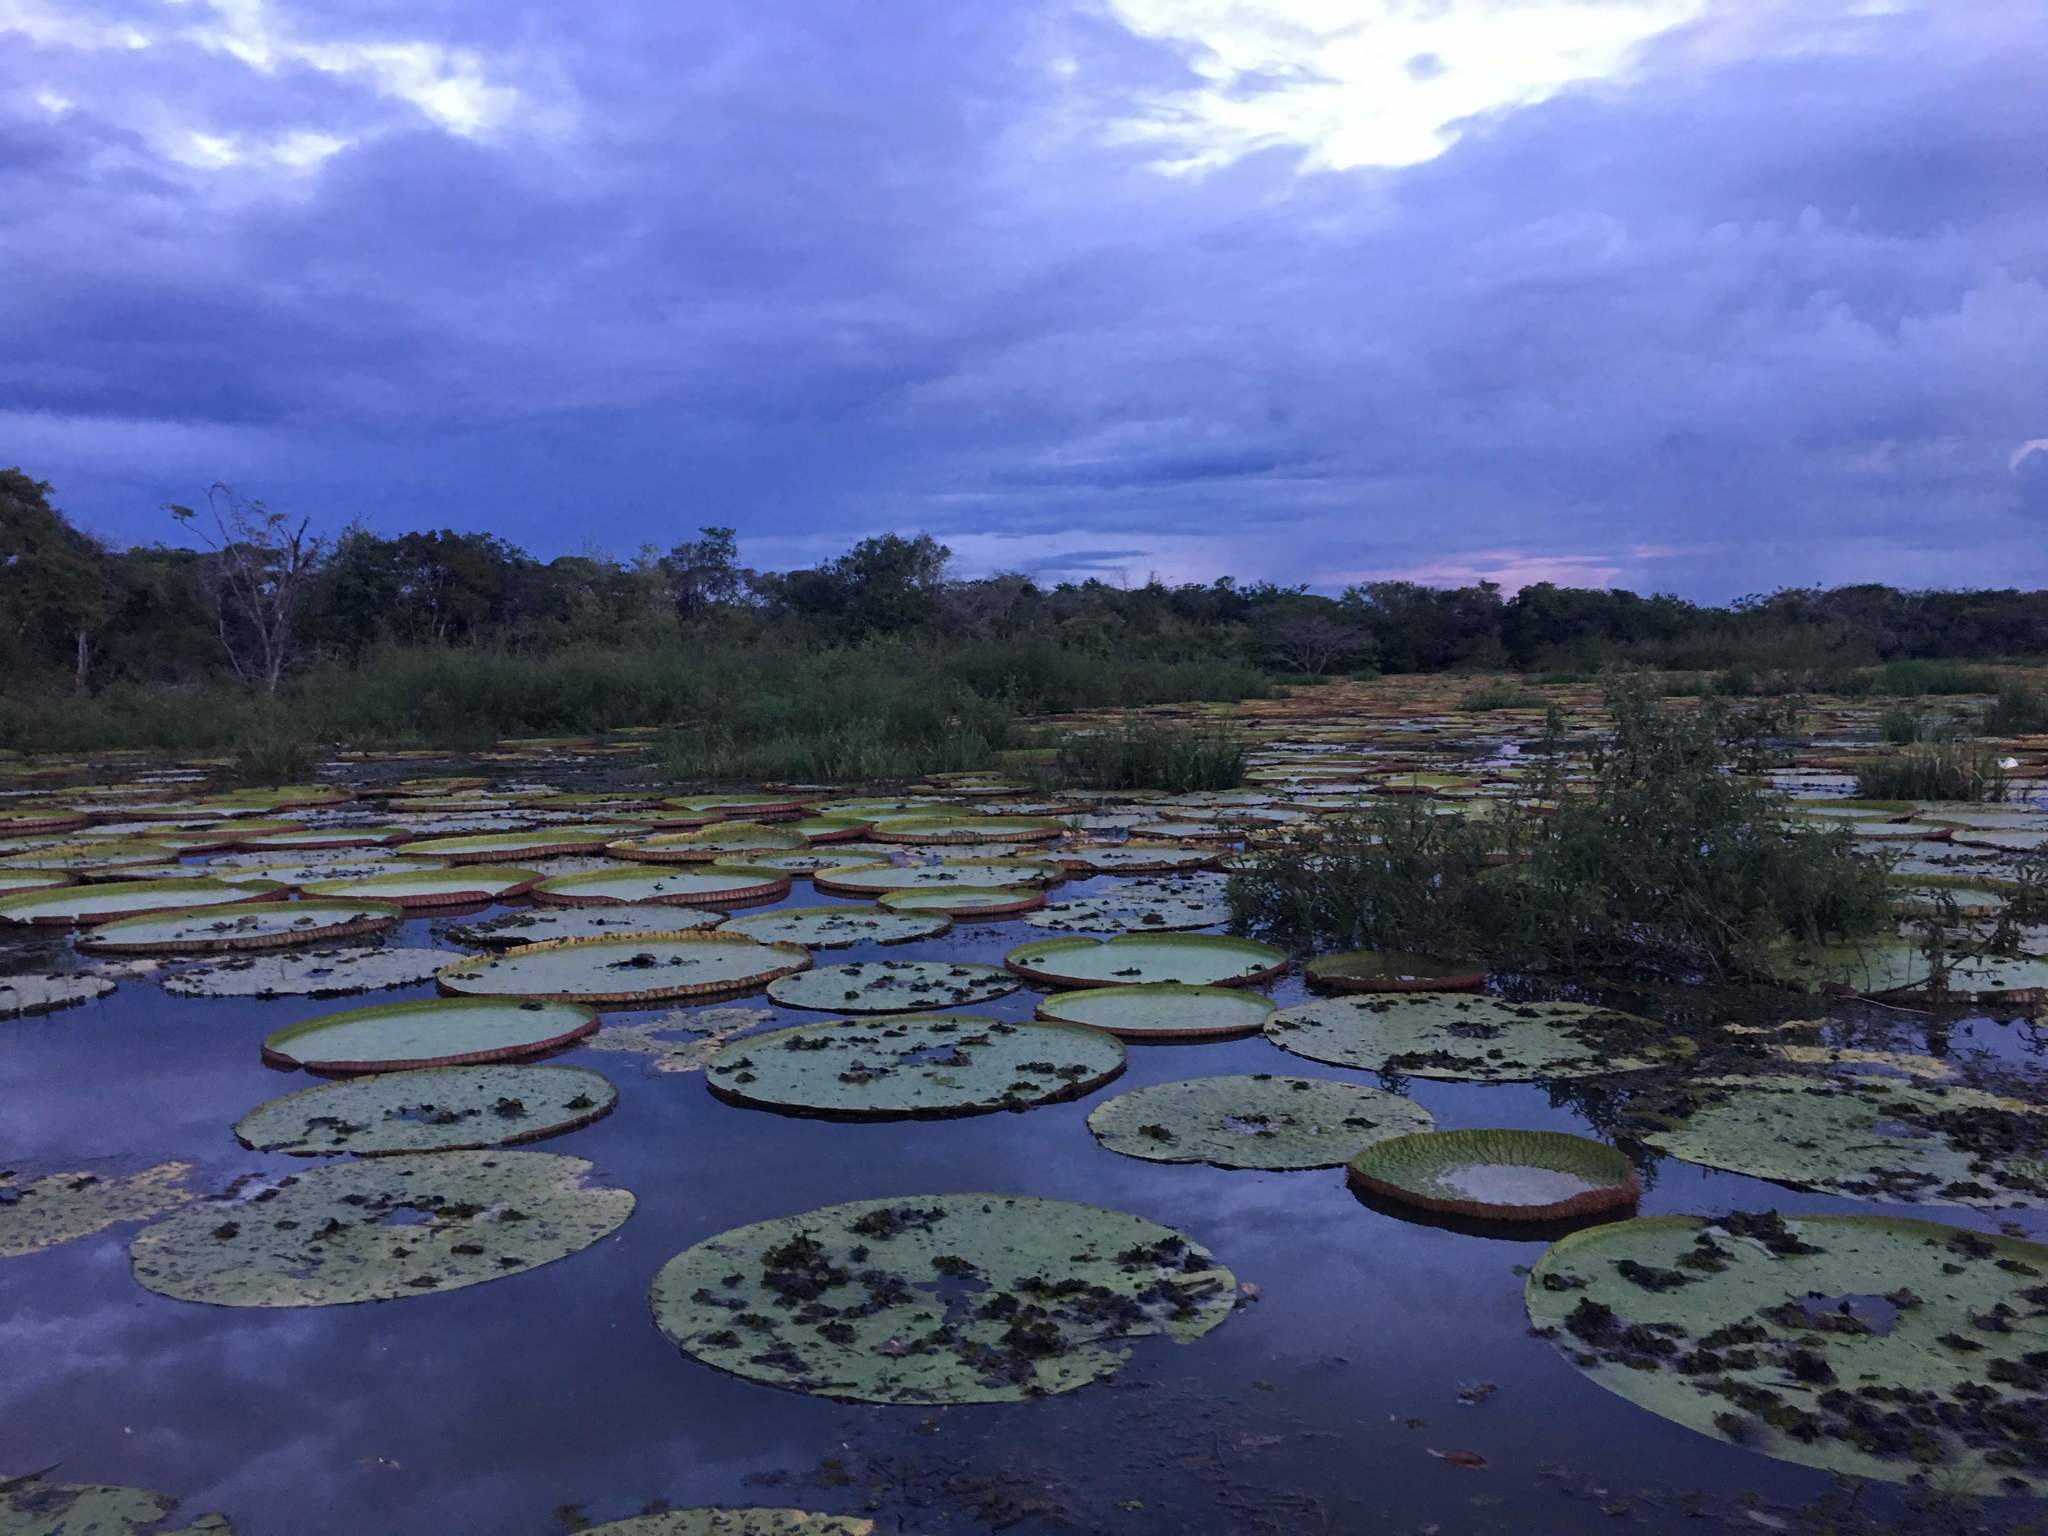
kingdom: Plantae
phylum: Tracheophyta
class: Magnoliopsida
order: Nymphaeales
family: Nymphaeaceae
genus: Victoria
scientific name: Victoria amazonica
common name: Amazon water-lily
